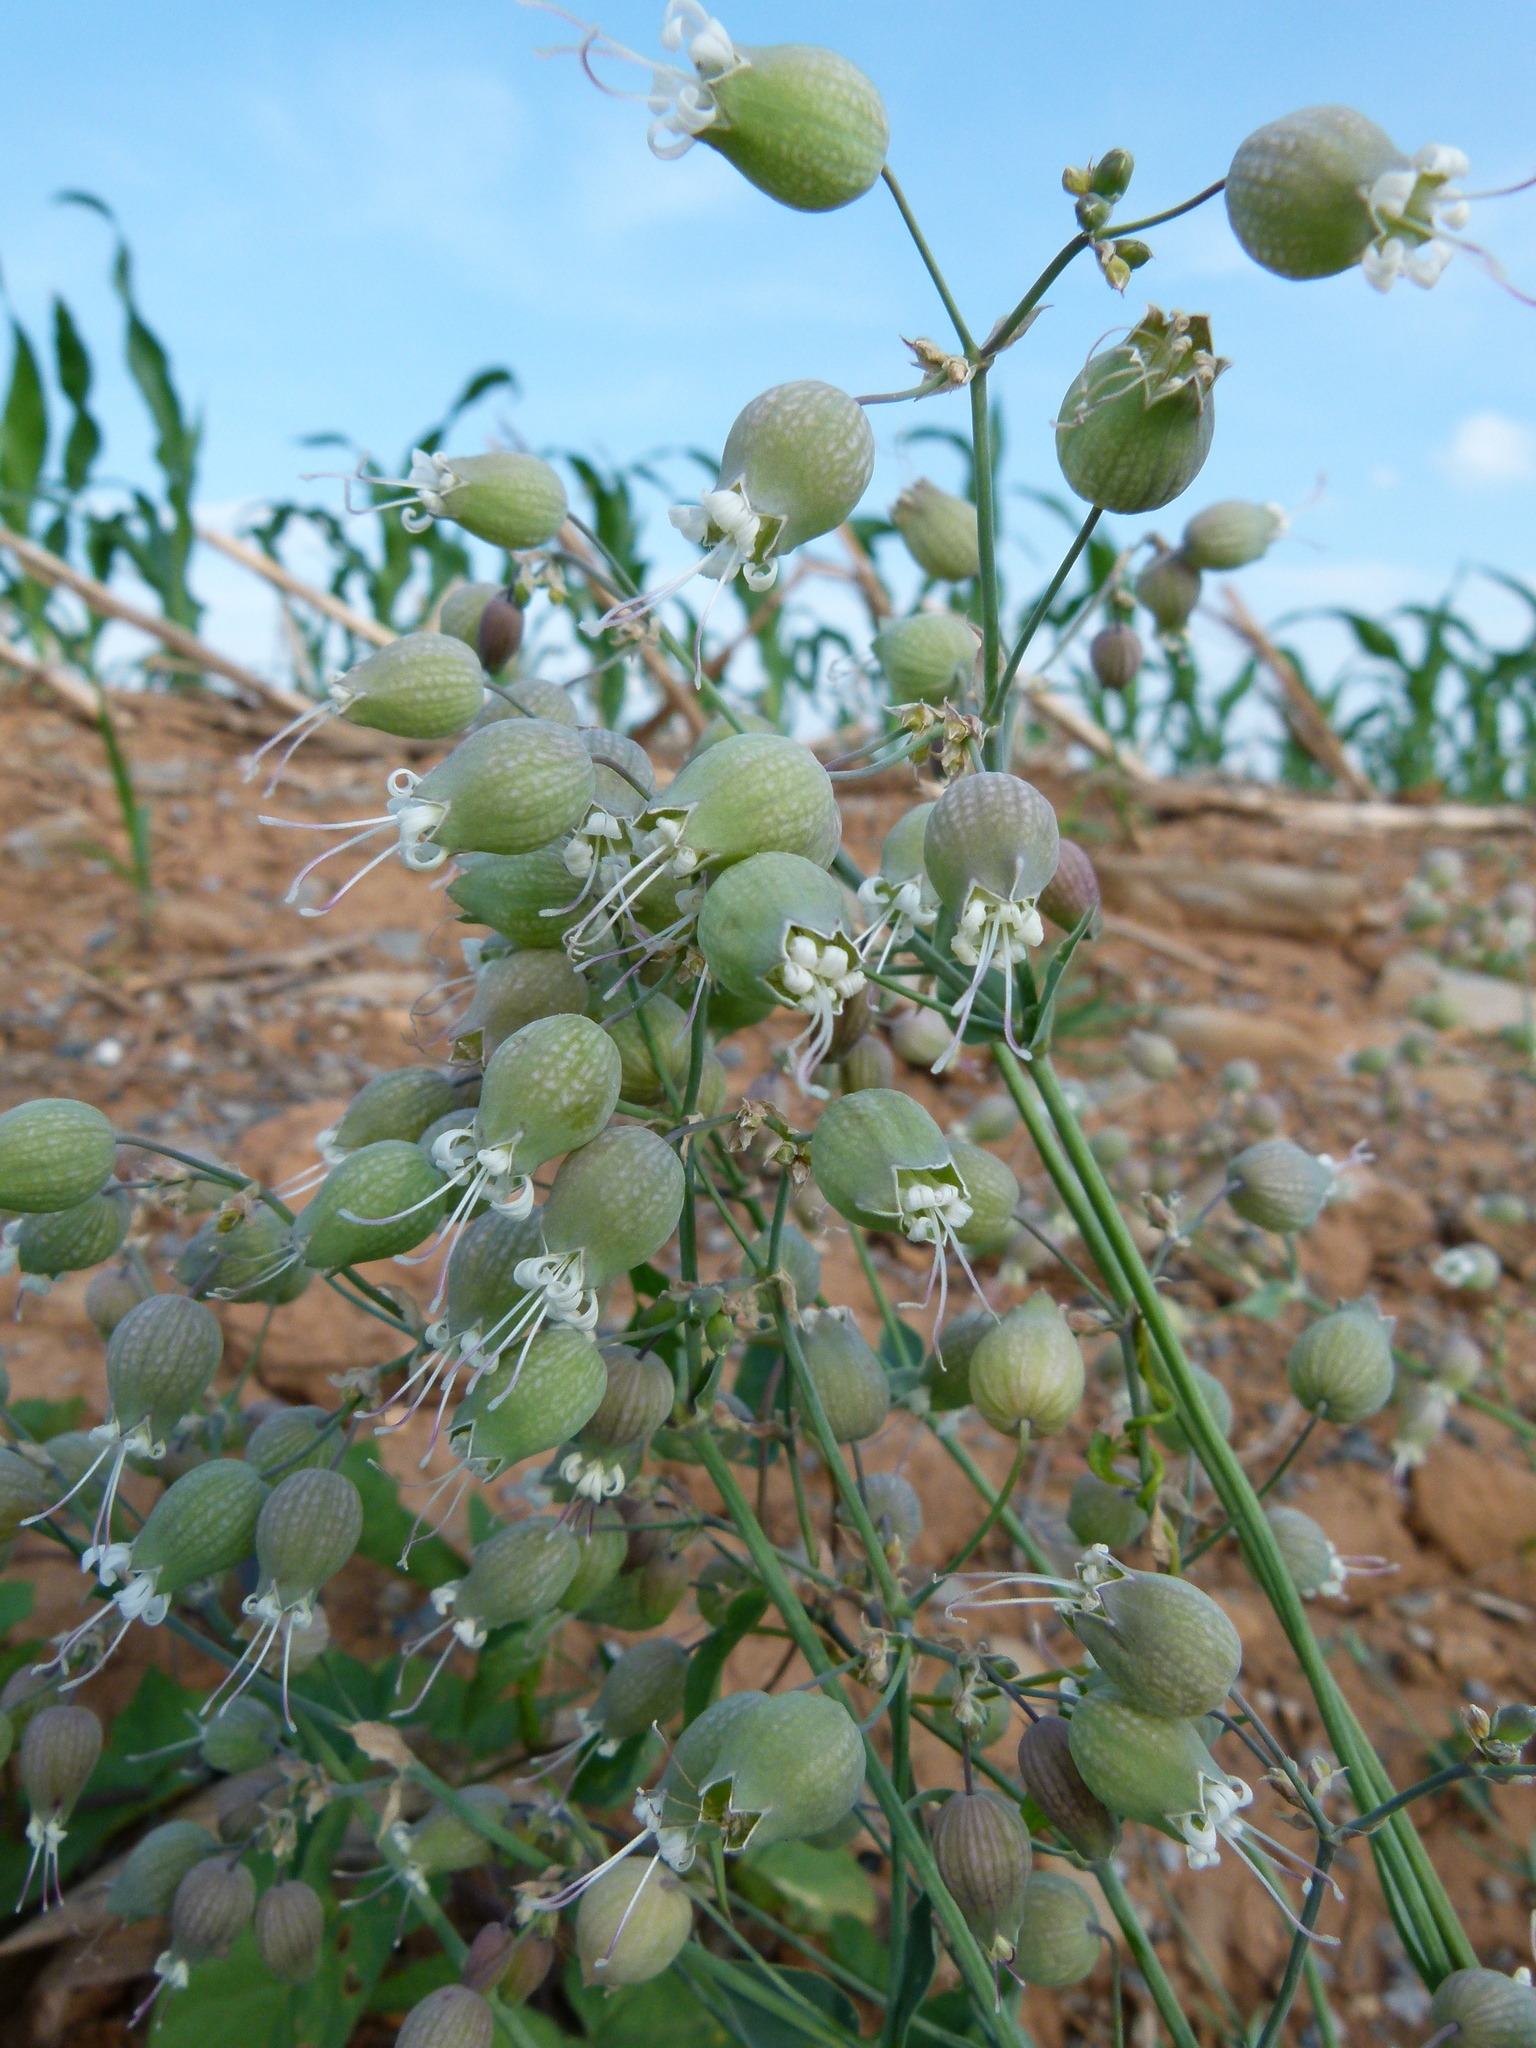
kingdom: Plantae
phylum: Tracheophyta
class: Magnoliopsida
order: Caryophyllales
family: Caryophyllaceae
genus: Silene
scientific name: Silene vulgaris
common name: Bladder campion
